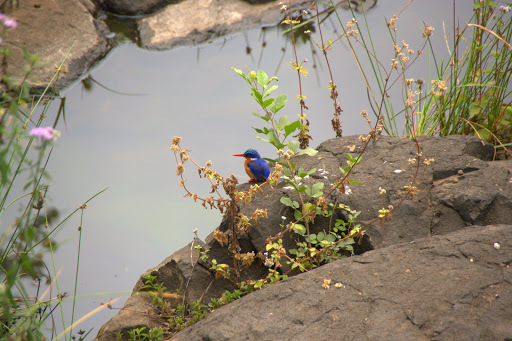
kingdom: Animalia
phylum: Chordata
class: Aves
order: Coraciiformes
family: Alcedinidae
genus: Corythornis
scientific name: Corythornis cristatus
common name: Malachite kingfisher
